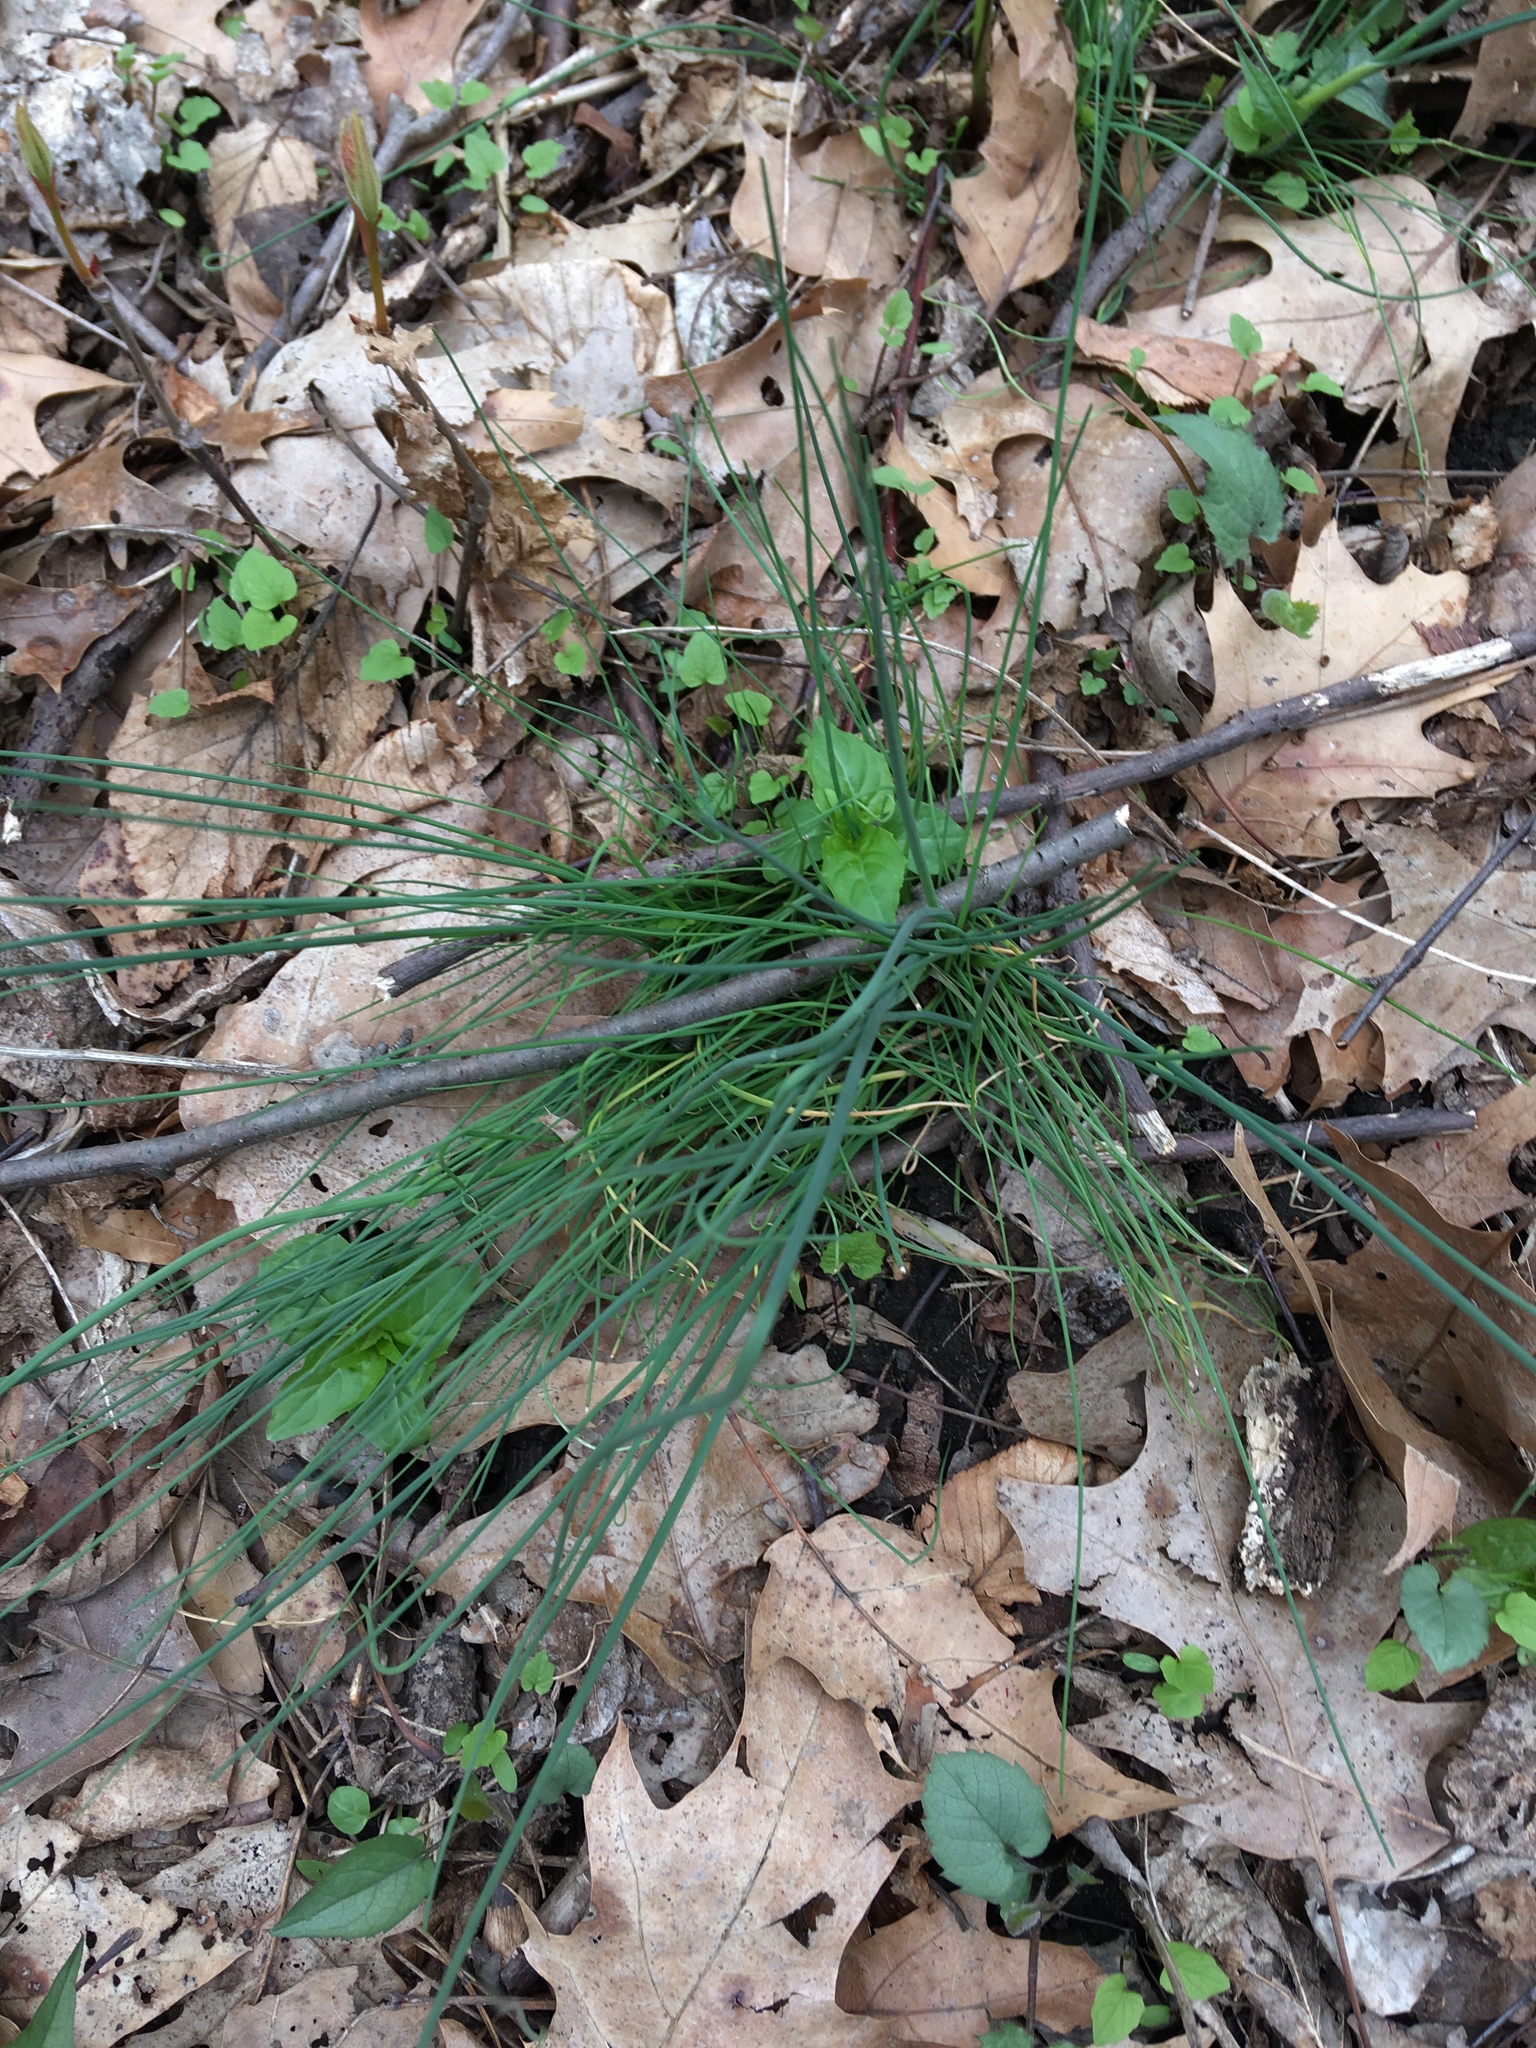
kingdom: Plantae
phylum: Tracheophyta
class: Liliopsida
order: Asparagales
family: Amaryllidaceae
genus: Allium
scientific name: Allium vineale
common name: Crow garlic
